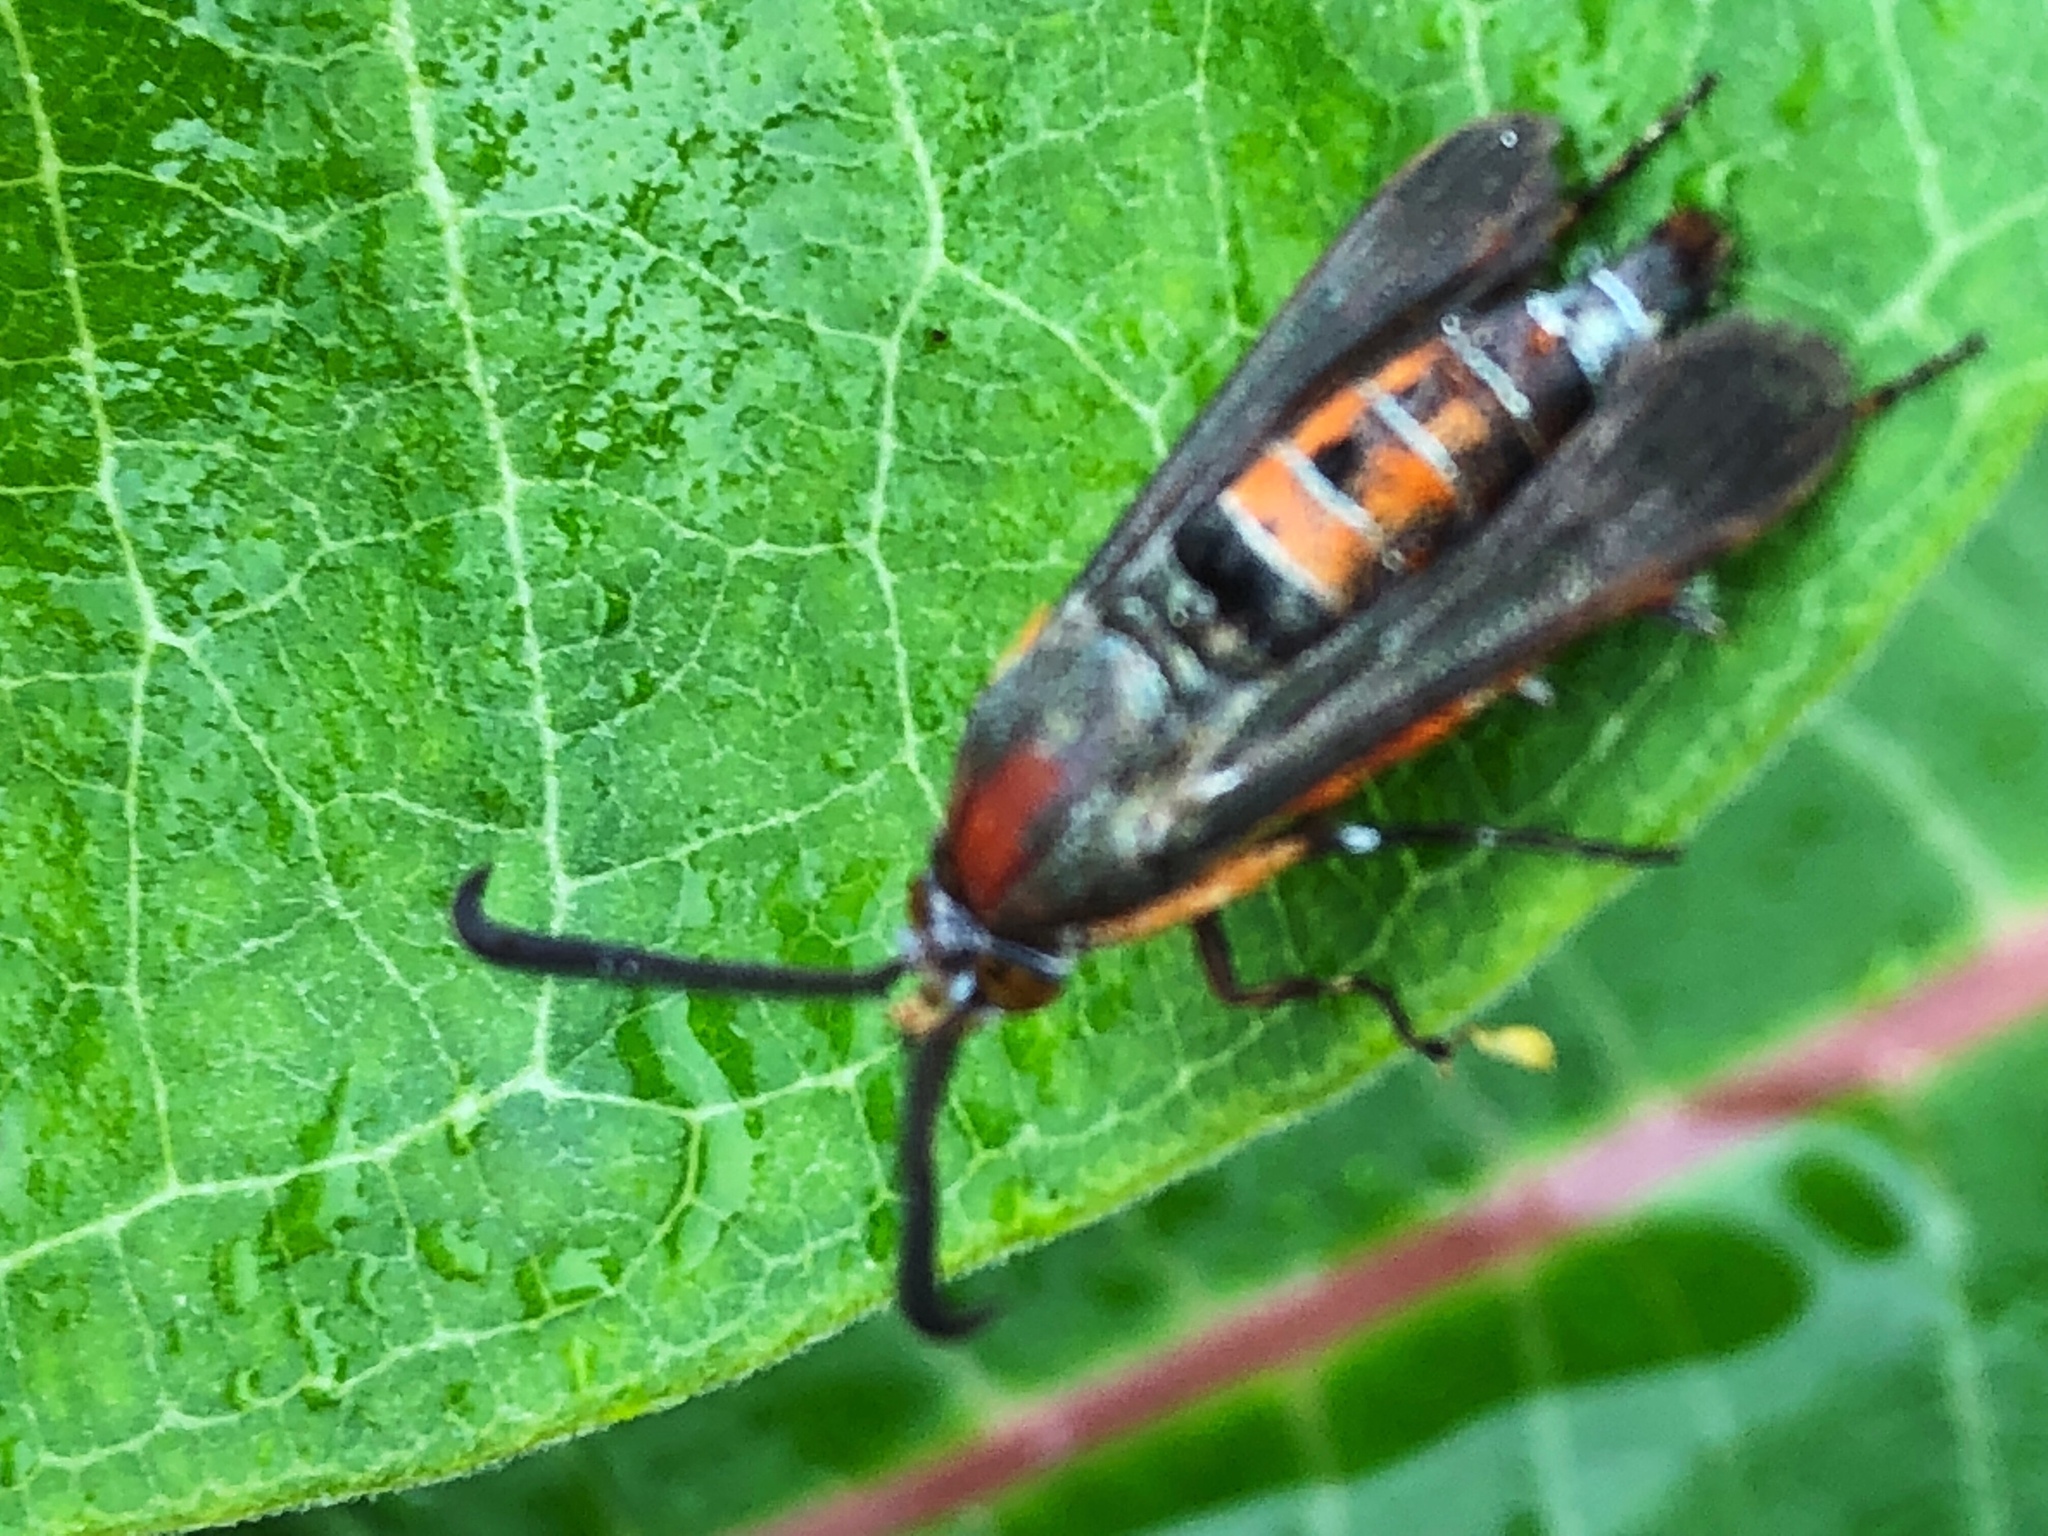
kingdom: Animalia
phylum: Arthropoda
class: Insecta
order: Lepidoptera
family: Sesiidae
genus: Eichlinia
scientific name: Eichlinia cucurbitae
